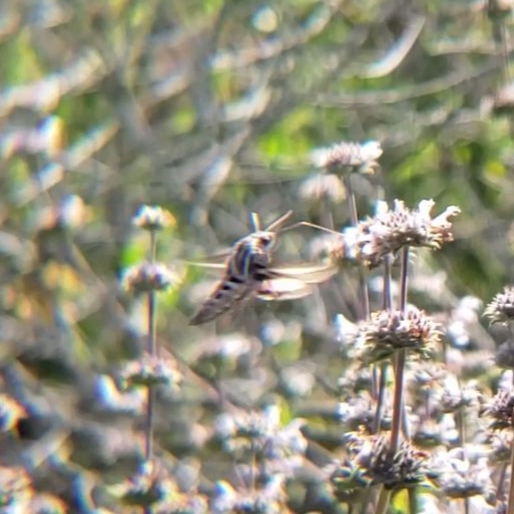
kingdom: Animalia
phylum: Arthropoda
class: Insecta
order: Lepidoptera
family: Sphingidae
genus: Hyles
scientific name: Hyles lineata
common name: White-lined sphinx
